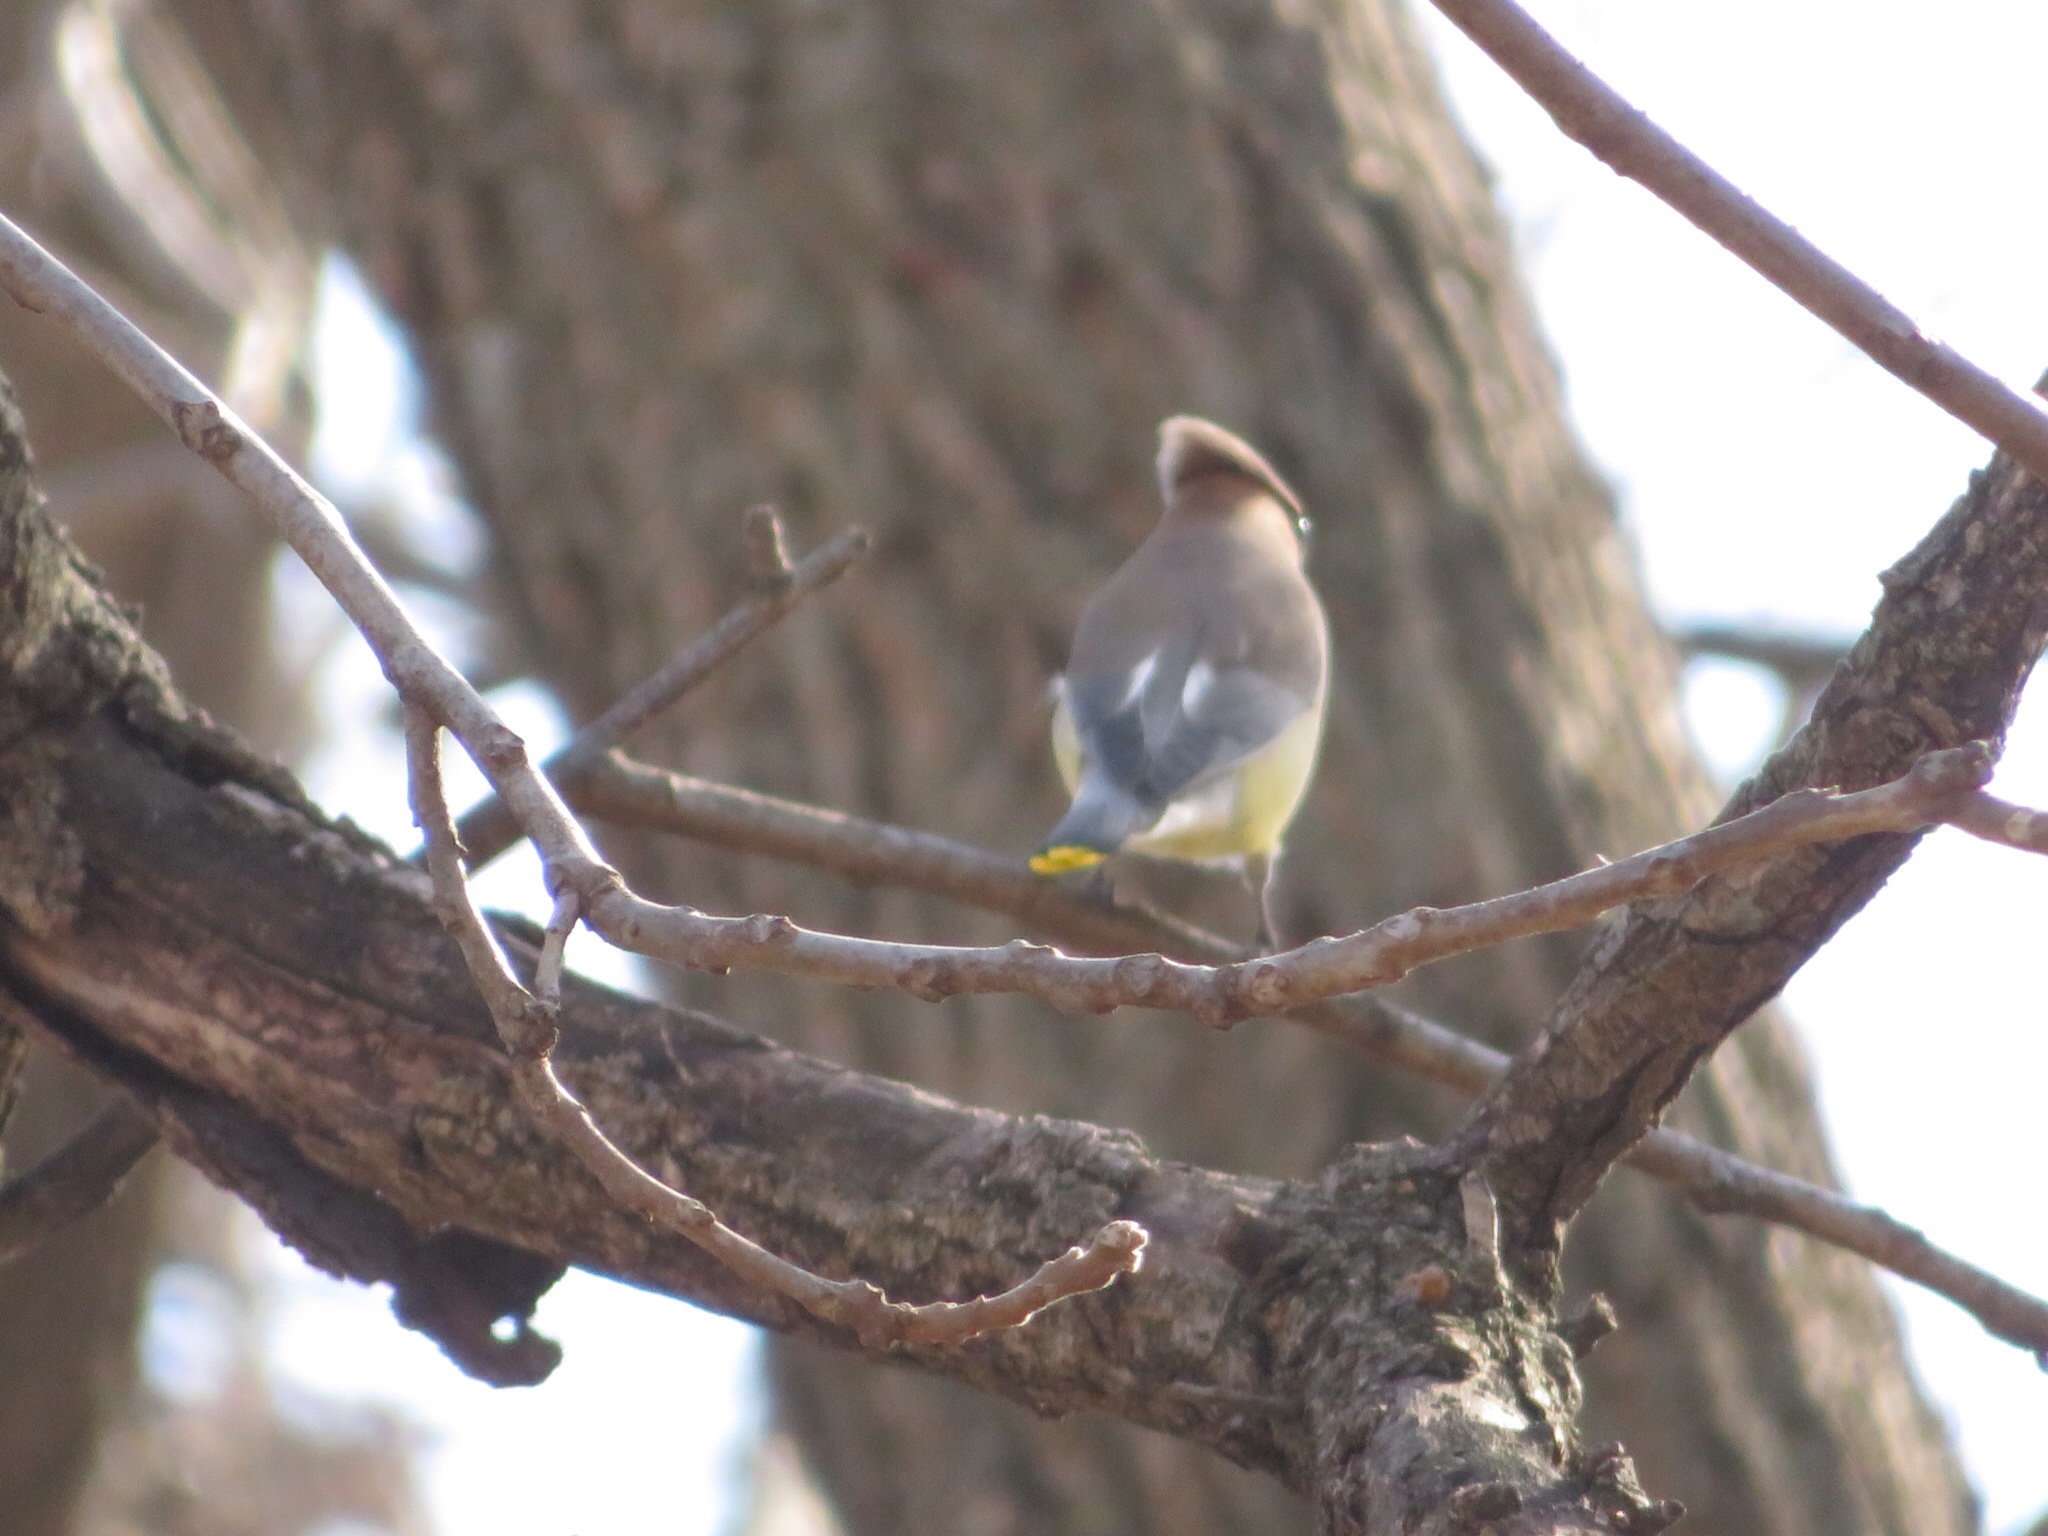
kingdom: Animalia
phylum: Chordata
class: Aves
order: Passeriformes
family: Bombycillidae
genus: Bombycilla
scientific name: Bombycilla cedrorum
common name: Cedar waxwing
